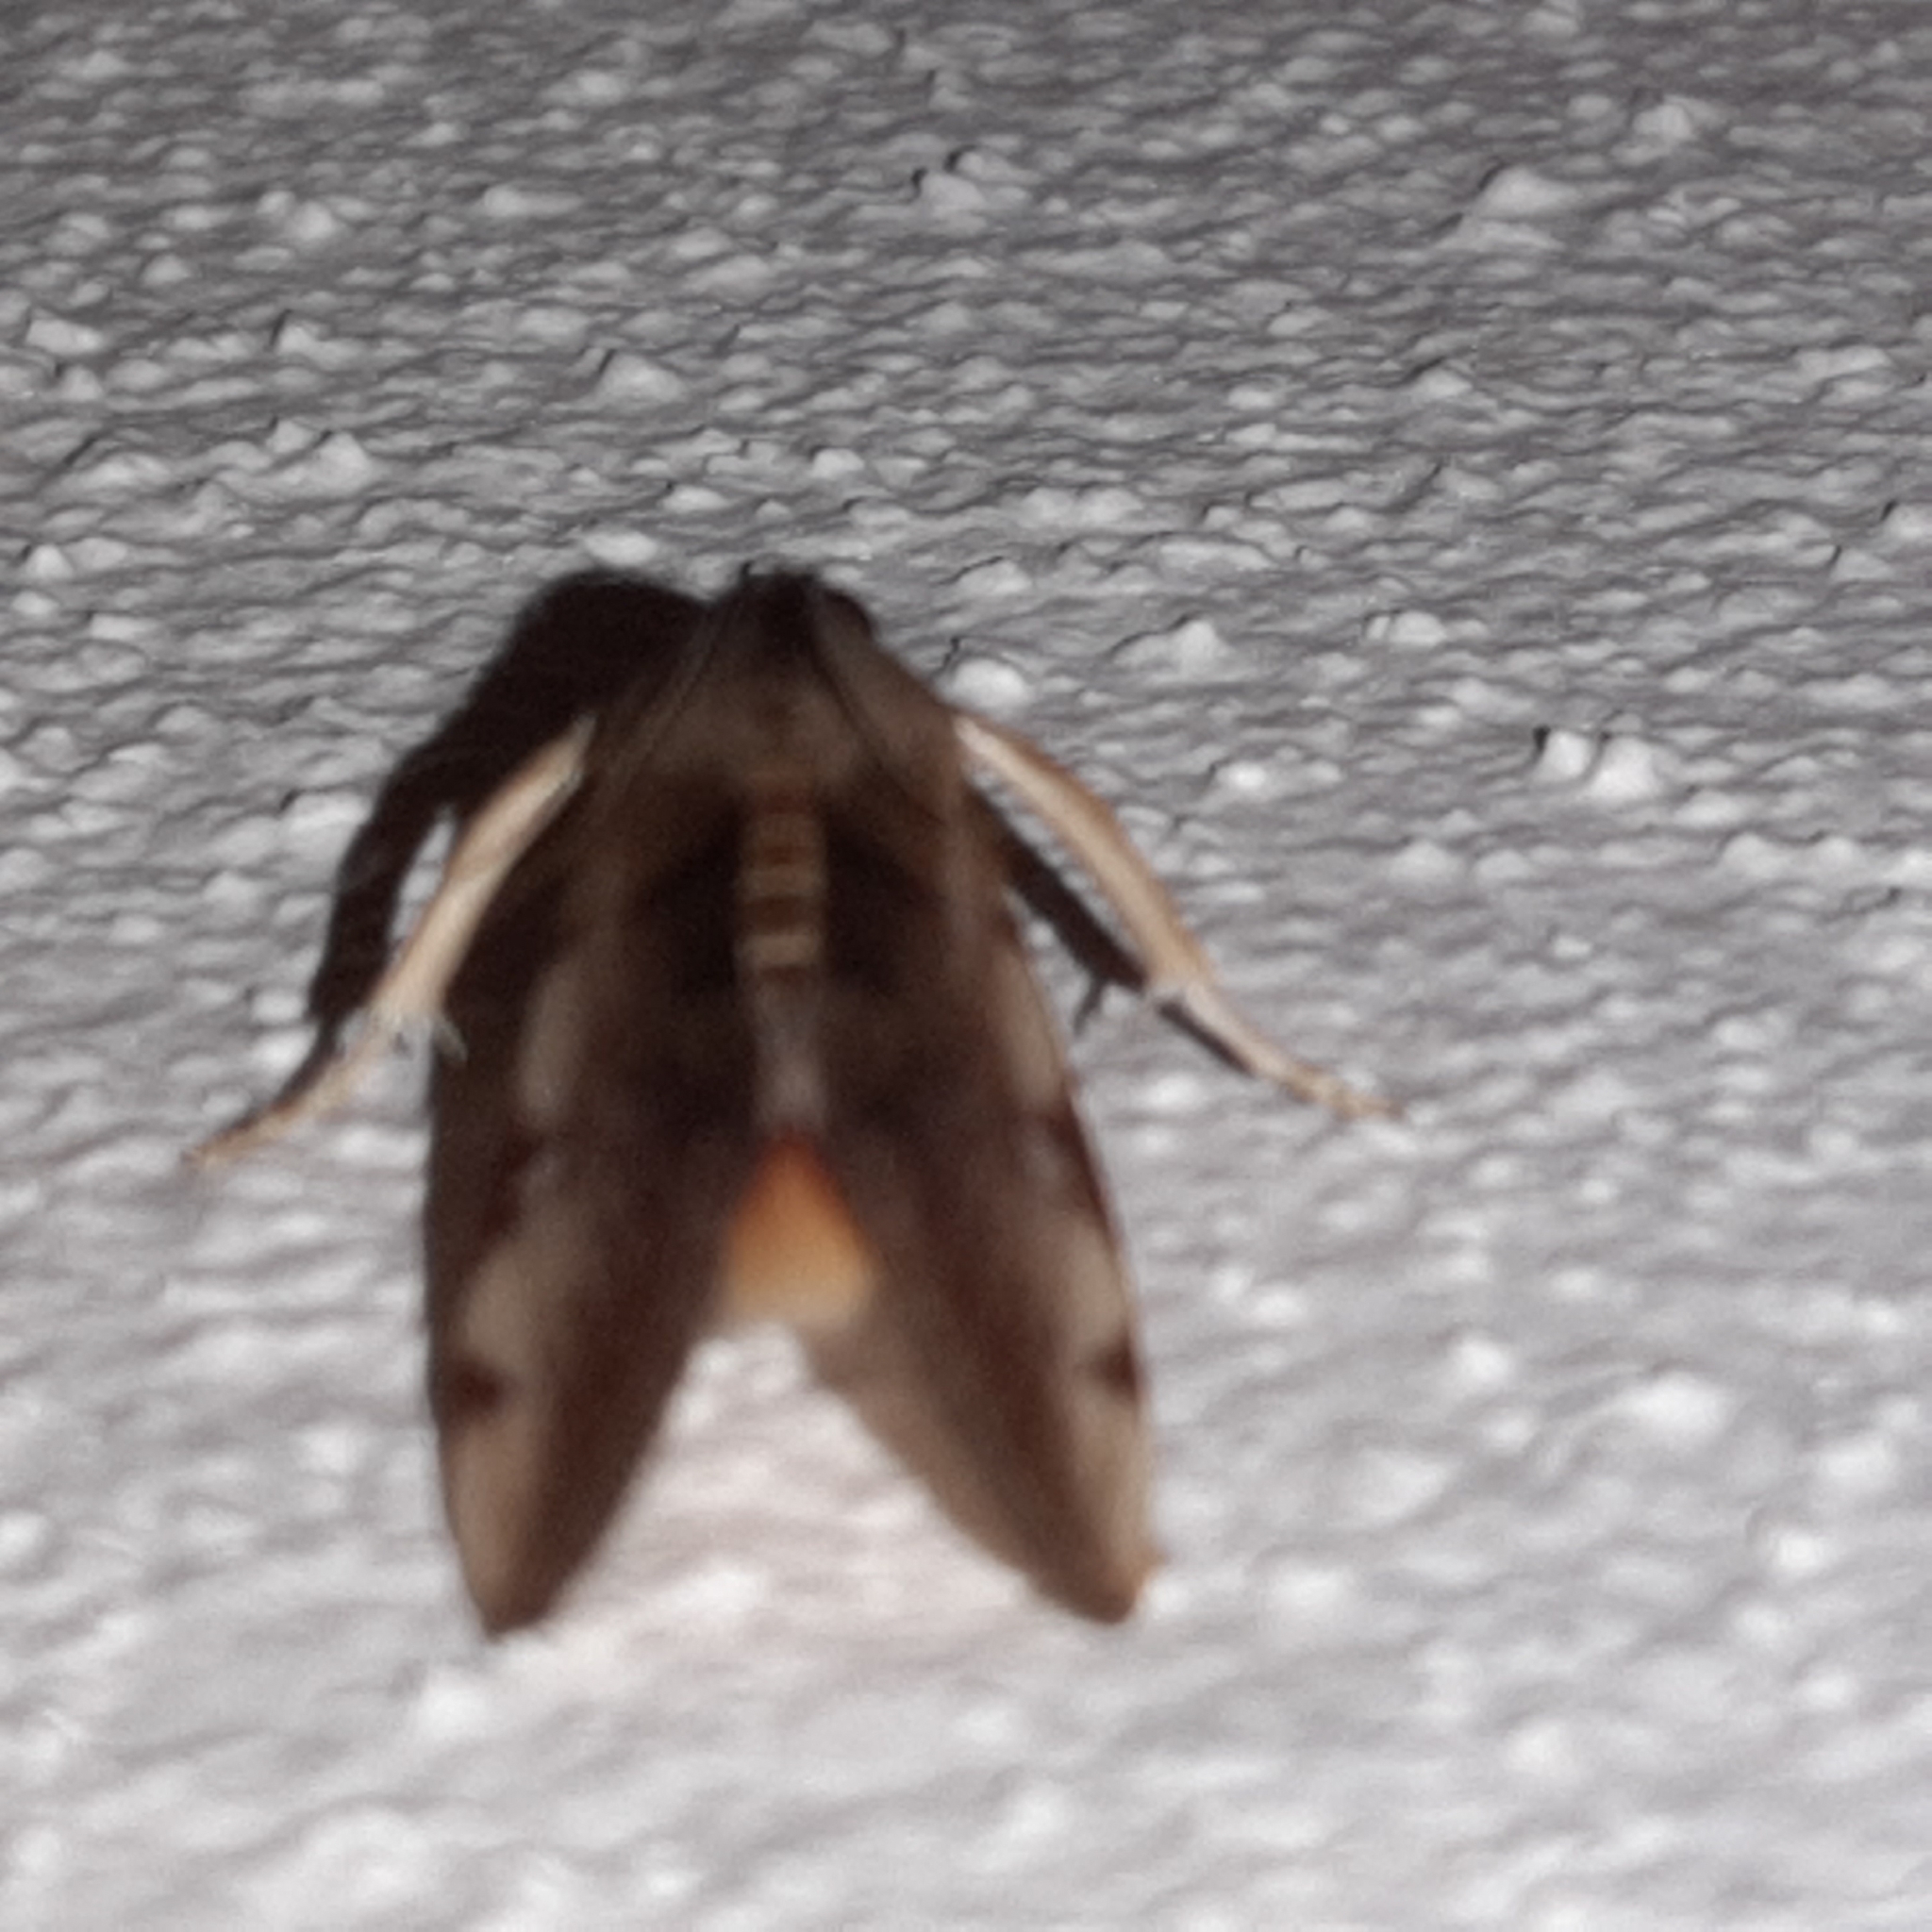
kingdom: Animalia
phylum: Arthropoda
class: Insecta
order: Lepidoptera
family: Crambidae
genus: Cliniodes
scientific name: Cliniodes euphrosinalis
